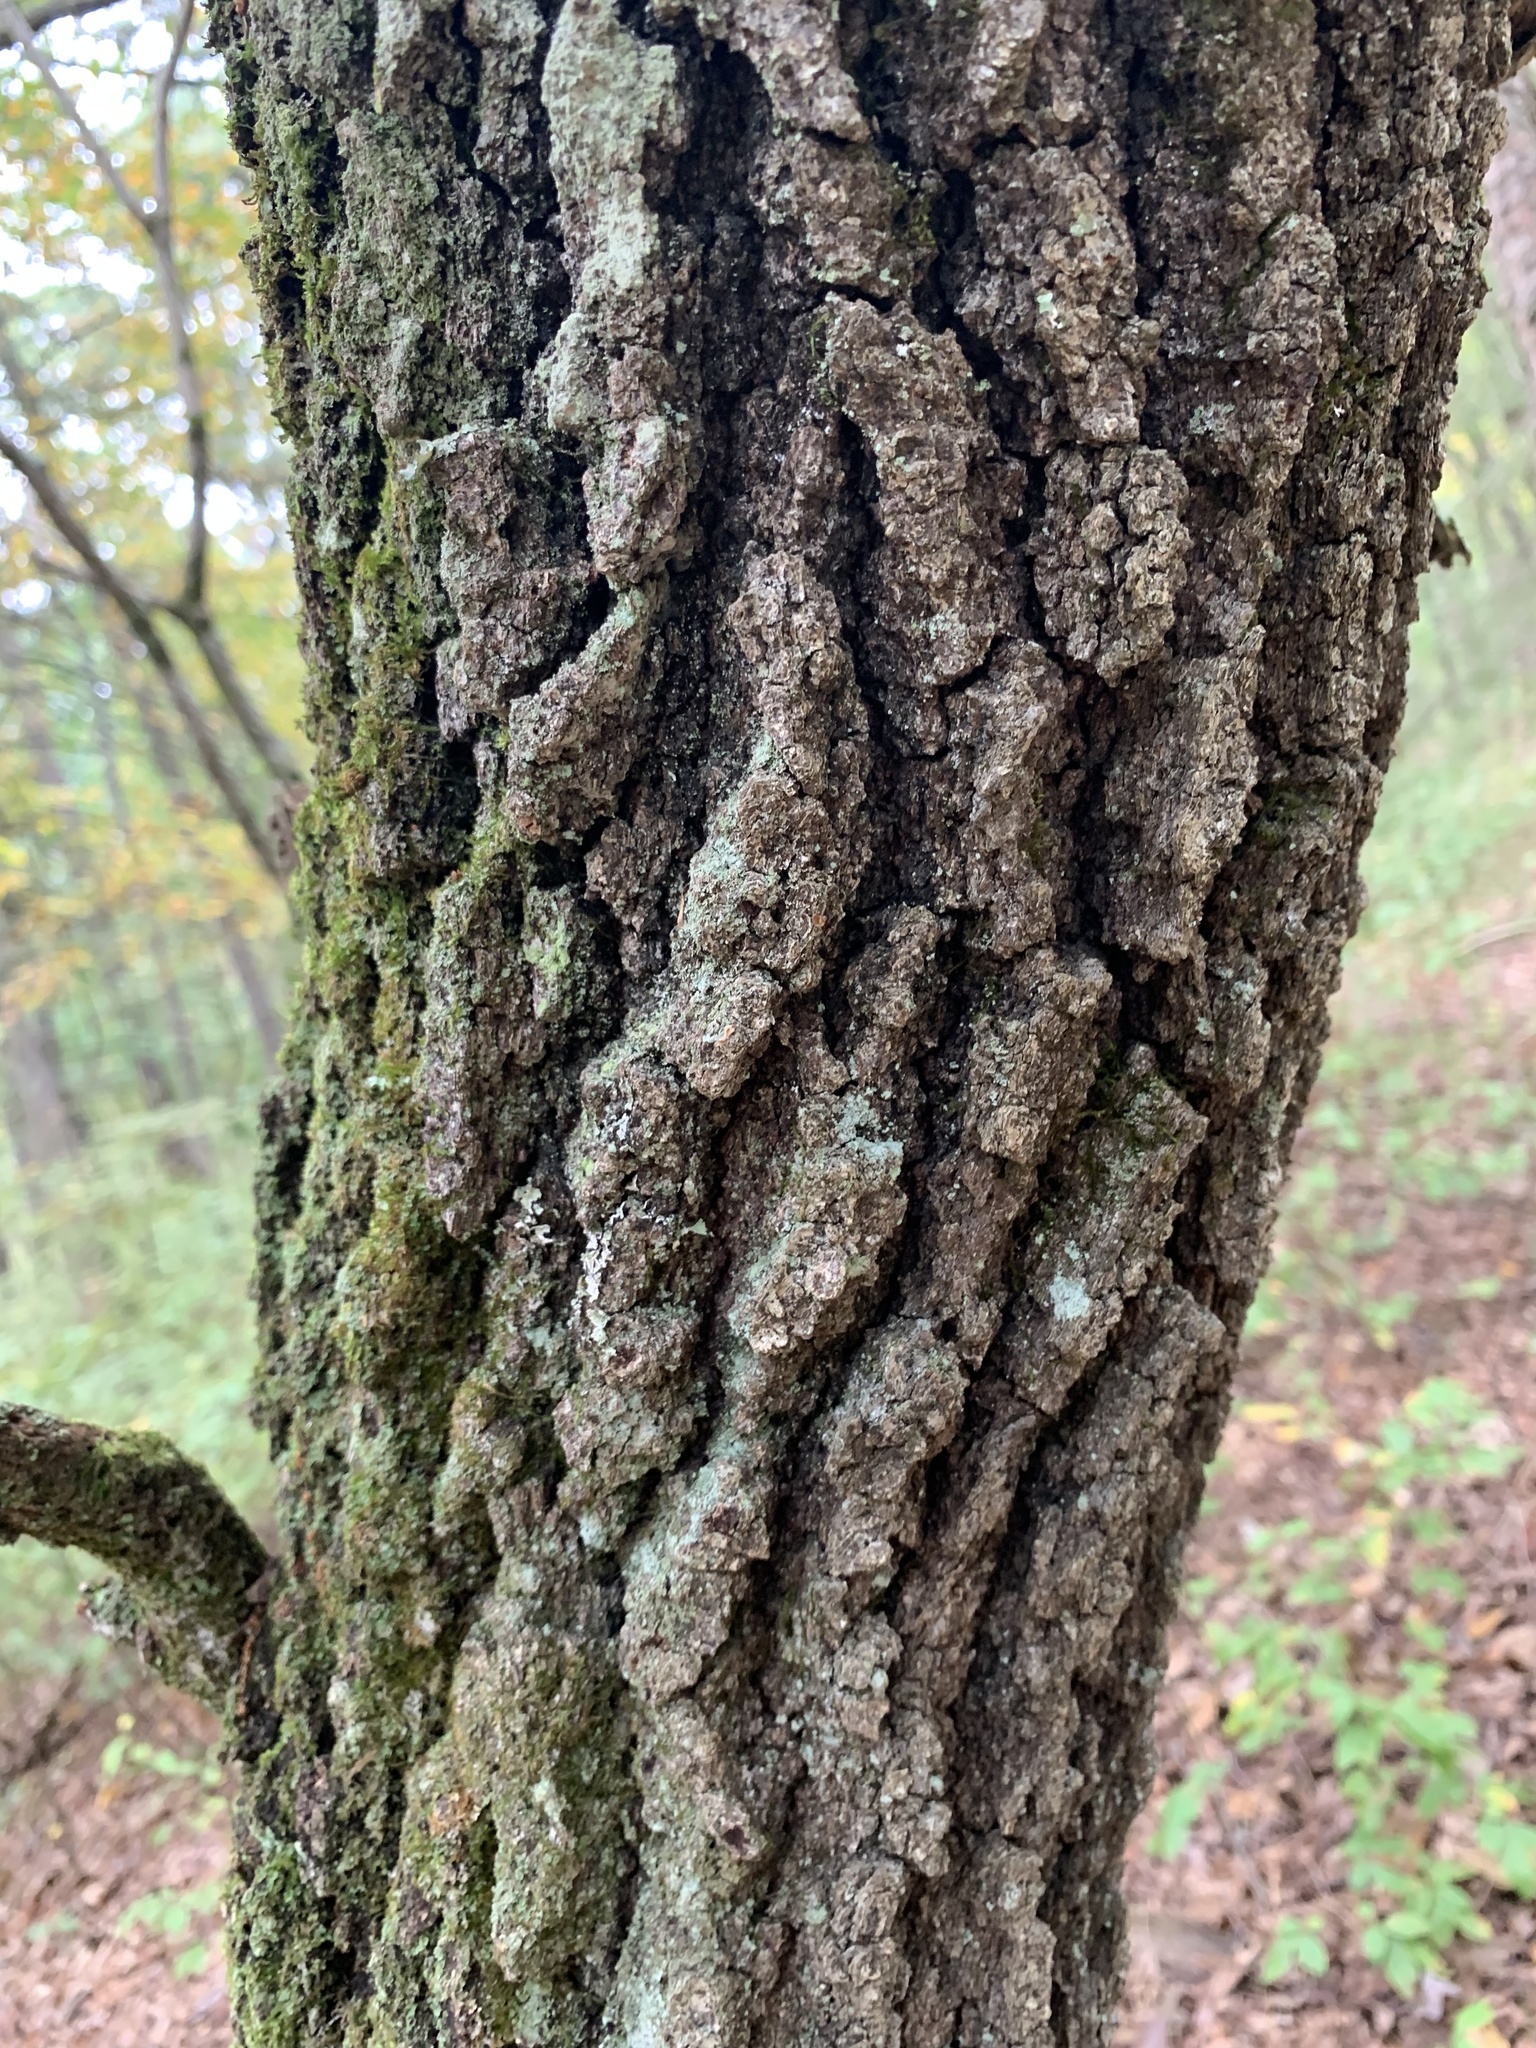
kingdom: Plantae
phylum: Tracheophyta
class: Magnoliopsida
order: Fagales
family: Fagaceae
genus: Quercus
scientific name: Quercus marilandica
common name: Blackjack oak
